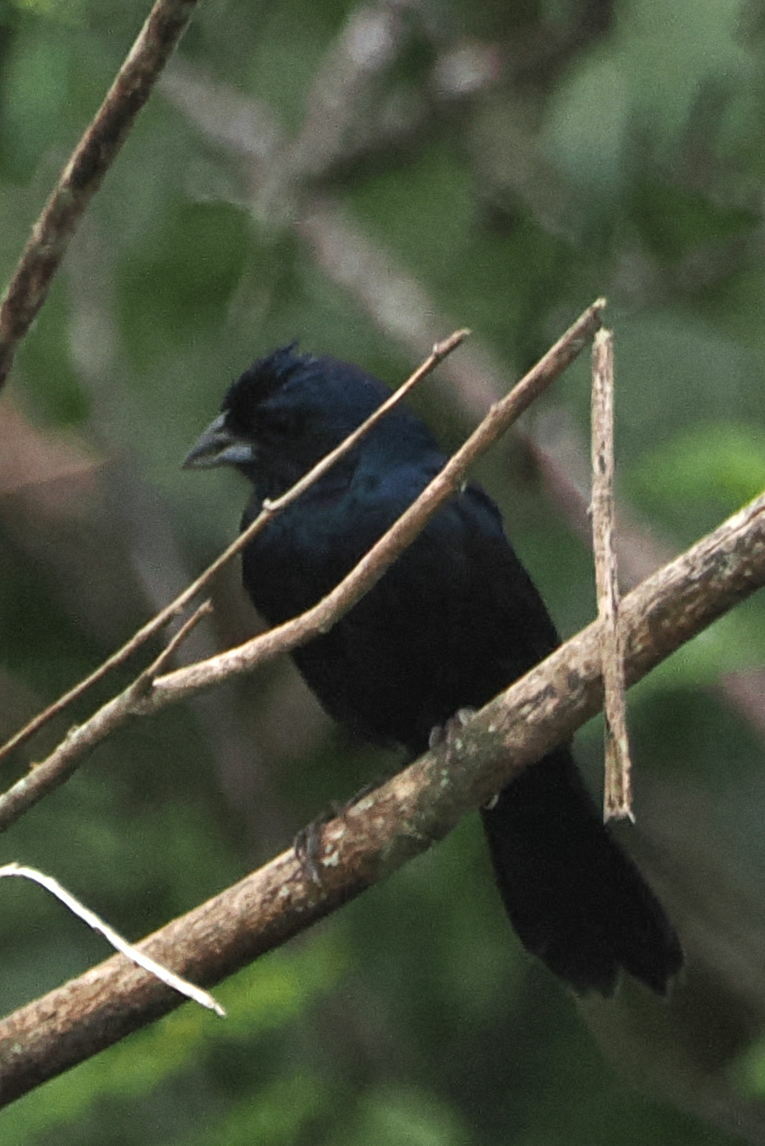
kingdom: Animalia
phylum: Chordata
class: Aves
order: Passeriformes
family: Thraupidae
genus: Volatinia
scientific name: Volatinia jacarina
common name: Blue-black grassquit
